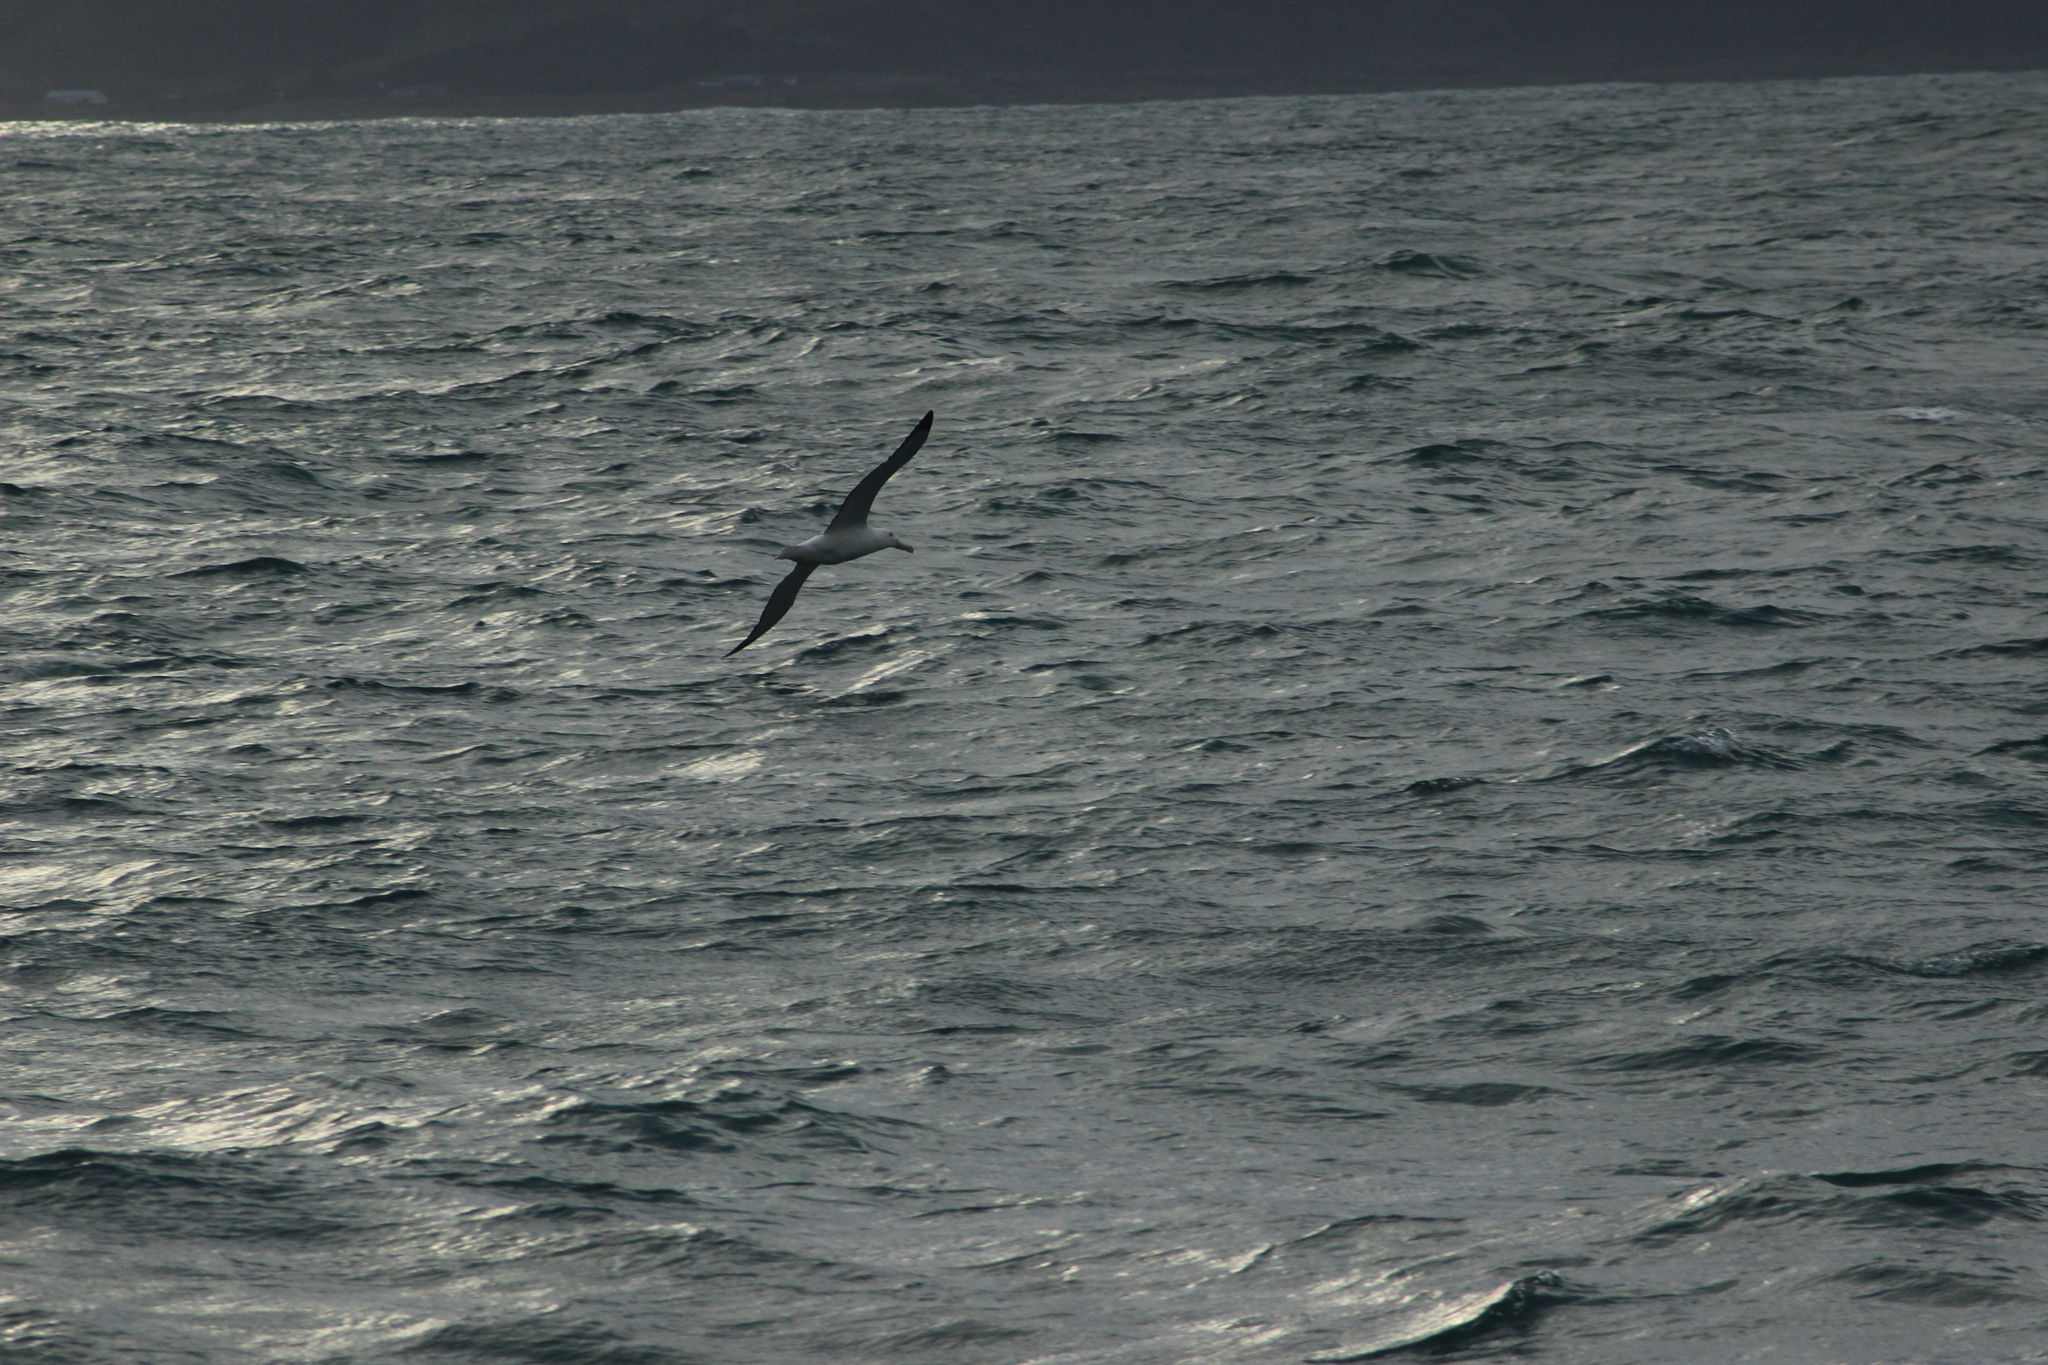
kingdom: Animalia
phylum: Chordata
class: Aves
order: Procellariiformes
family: Diomedeidae
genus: Diomedea
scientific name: Diomedea sanfordi
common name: Northern royal albatross
